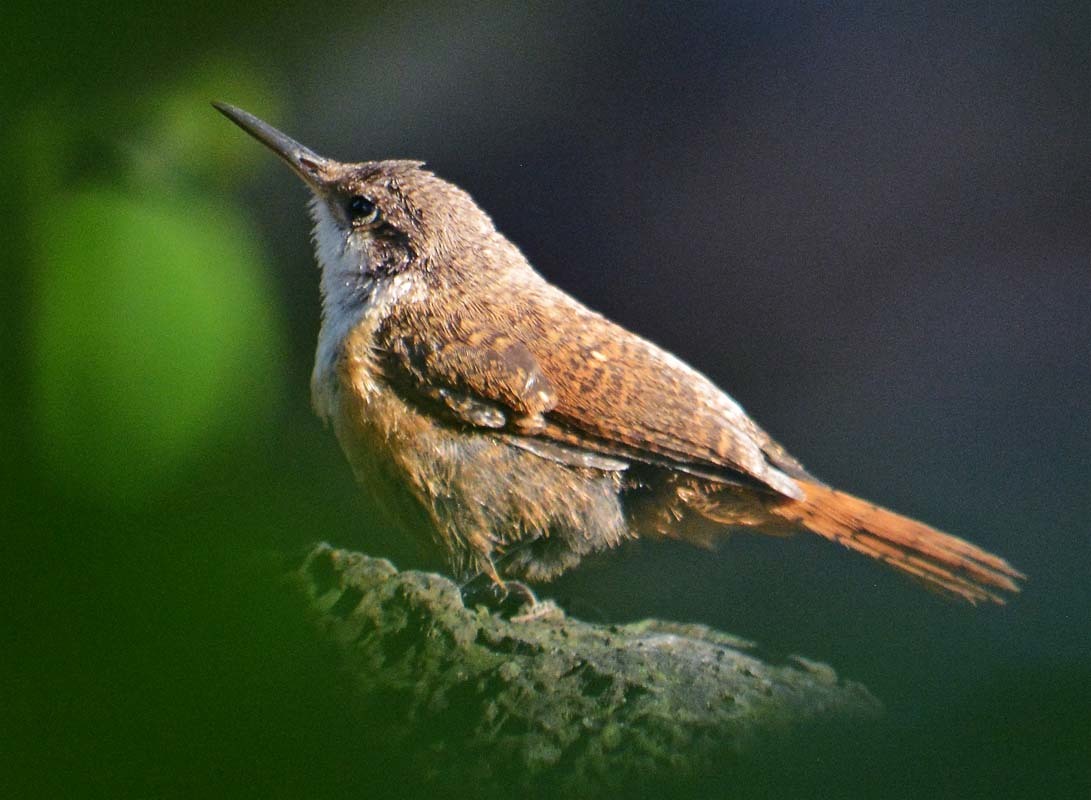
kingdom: Animalia
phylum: Chordata
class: Aves
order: Passeriformes
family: Troglodytidae
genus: Catherpes
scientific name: Catherpes mexicanus
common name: Canyon wren
